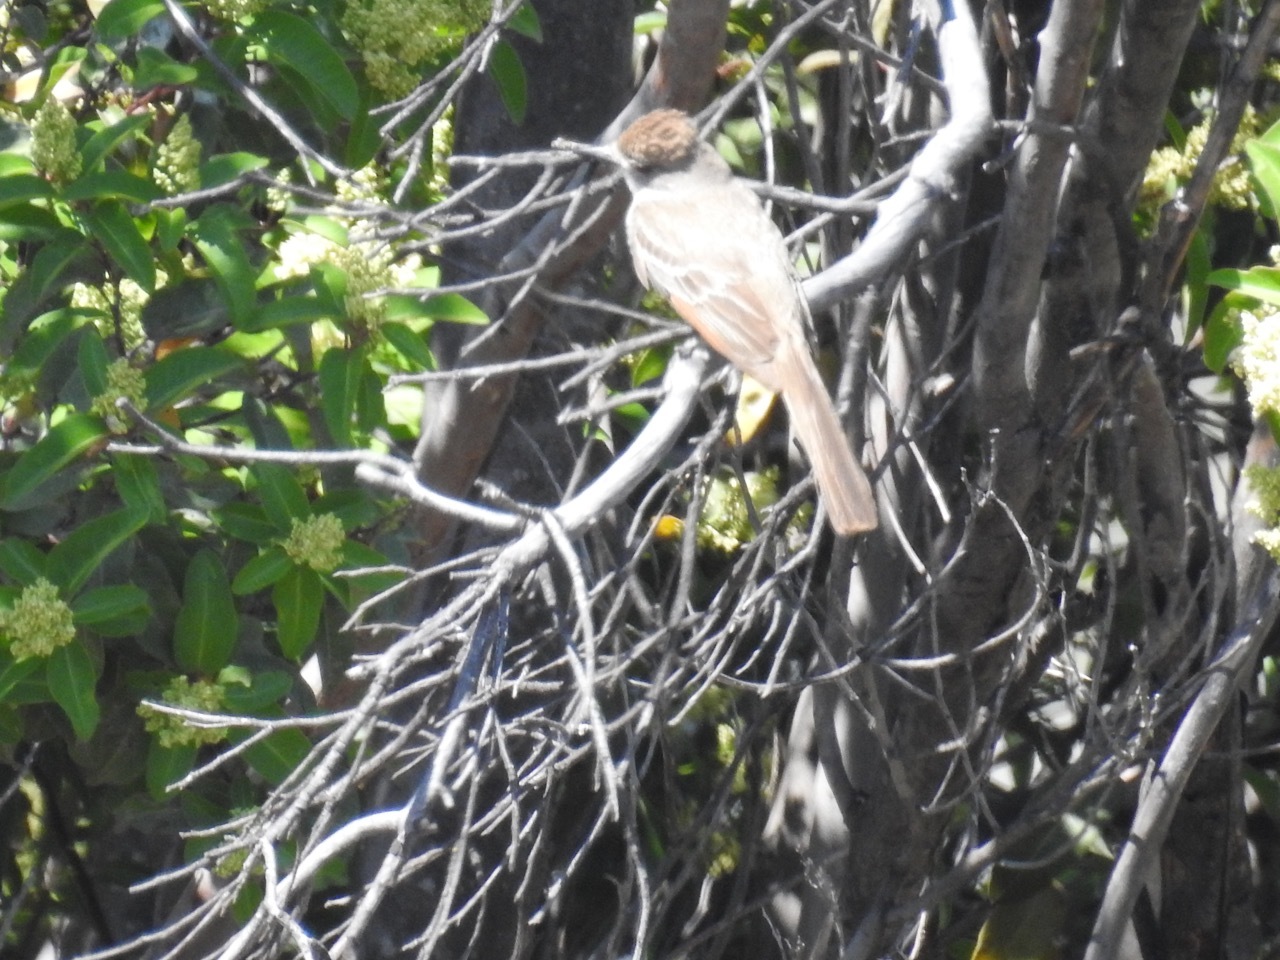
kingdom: Animalia
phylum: Chordata
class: Aves
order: Passeriformes
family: Tyrannidae
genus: Myiarchus
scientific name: Myiarchus cinerascens
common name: Ash-throated flycatcher
